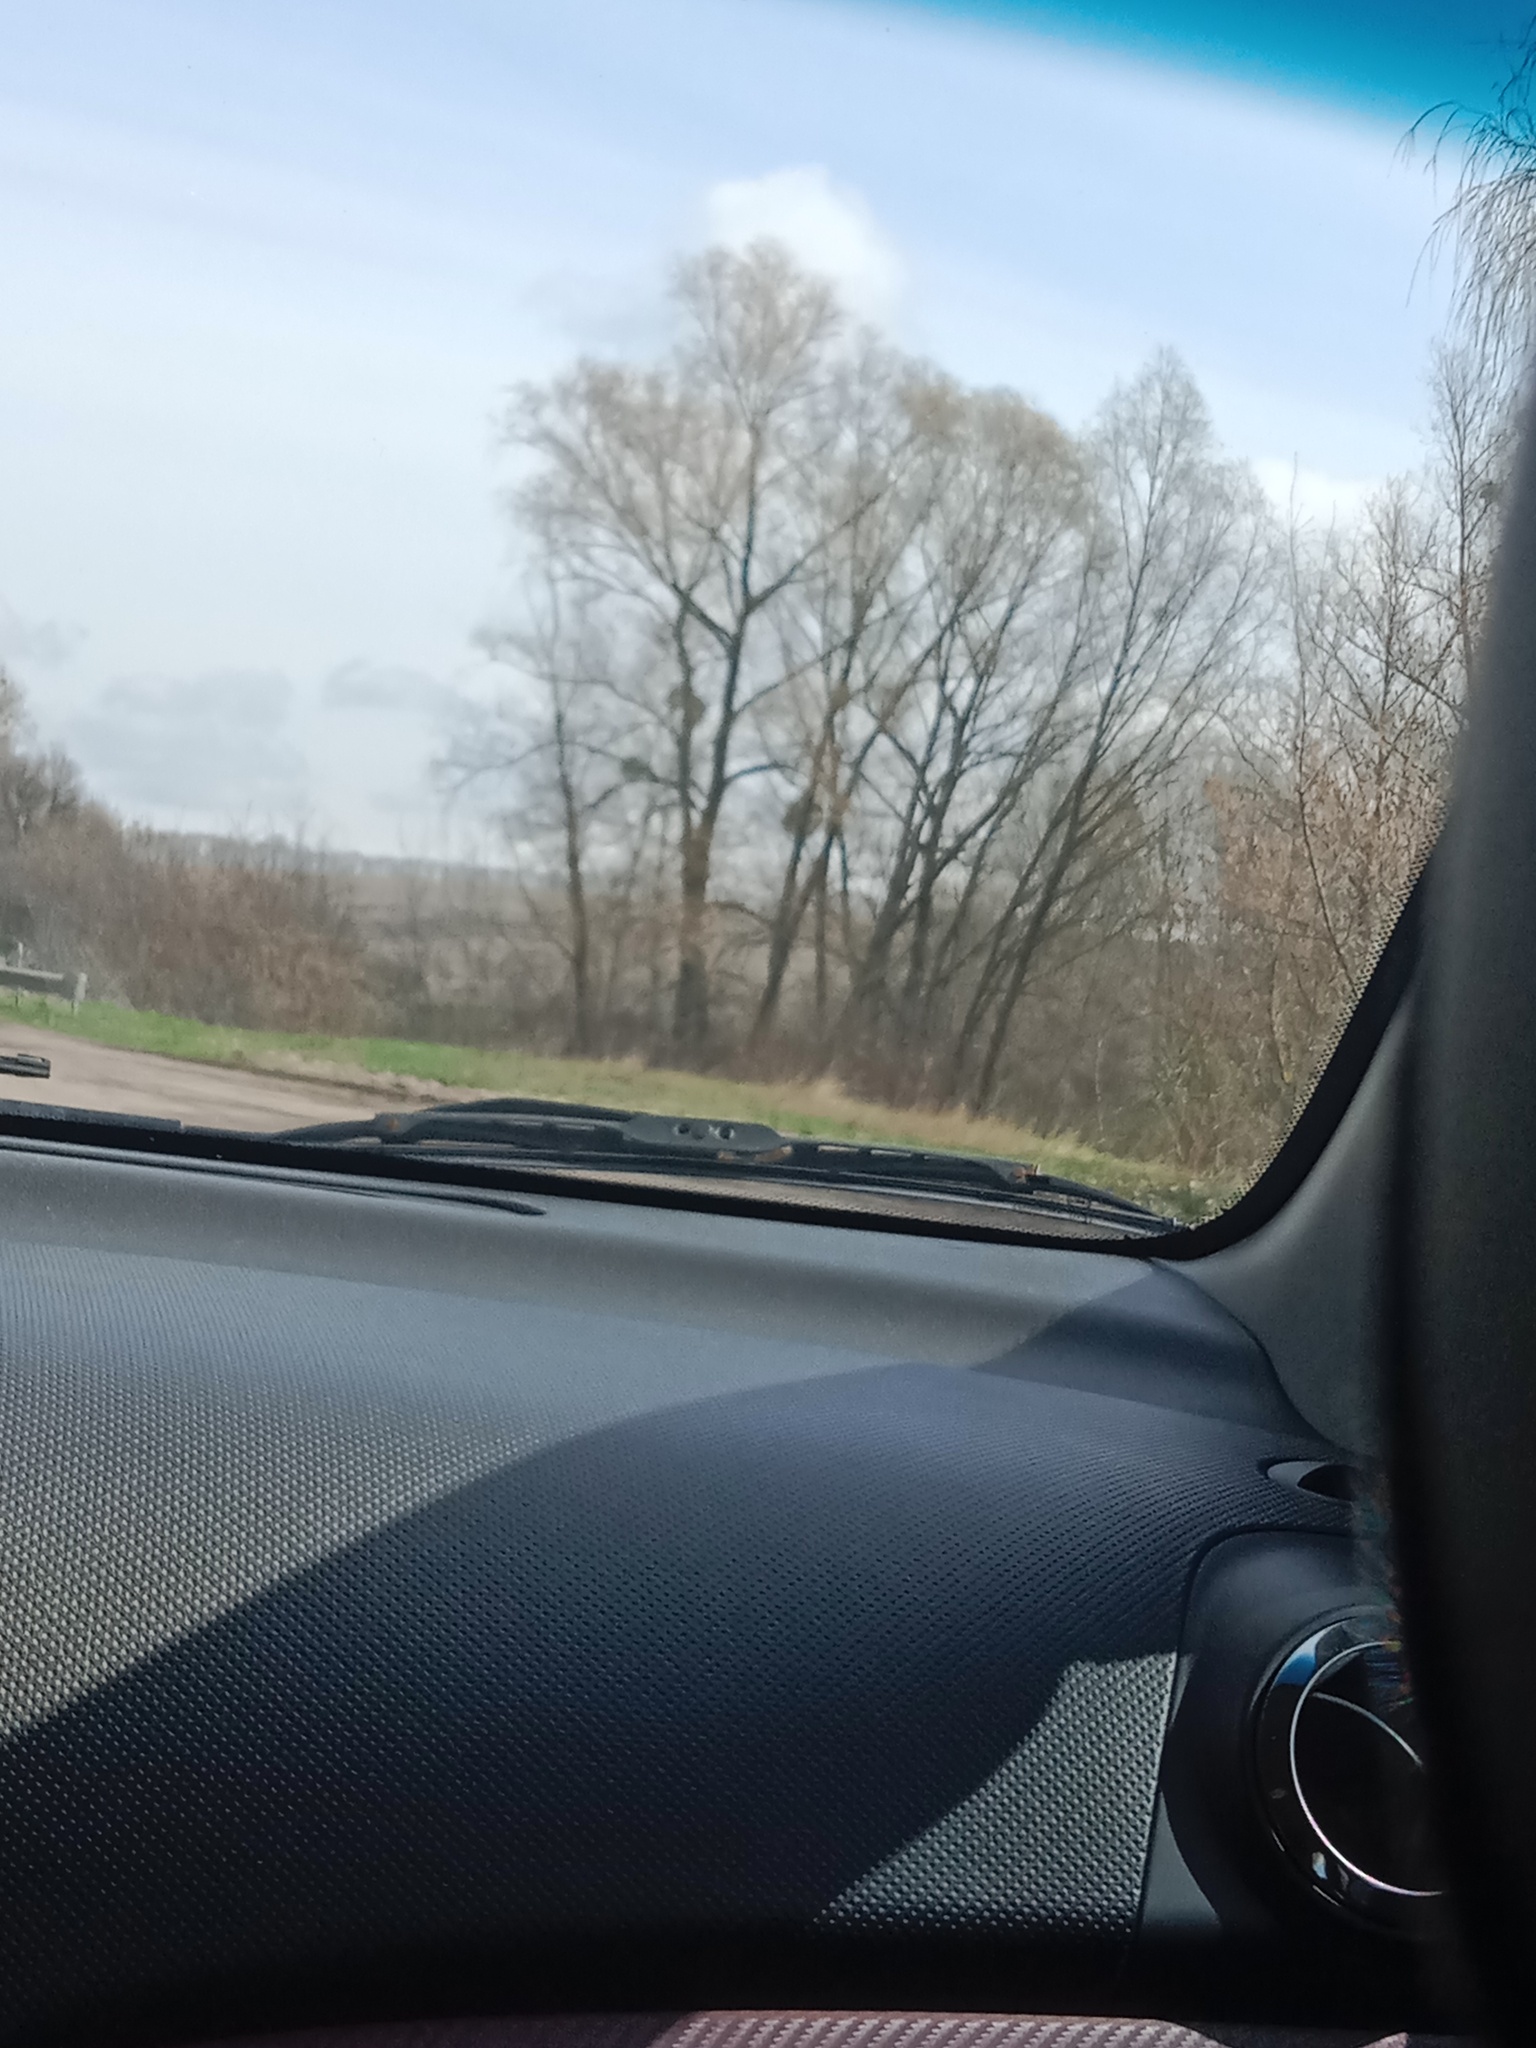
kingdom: Plantae
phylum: Tracheophyta
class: Magnoliopsida
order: Santalales
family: Viscaceae
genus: Viscum
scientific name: Viscum album
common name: Mistletoe
